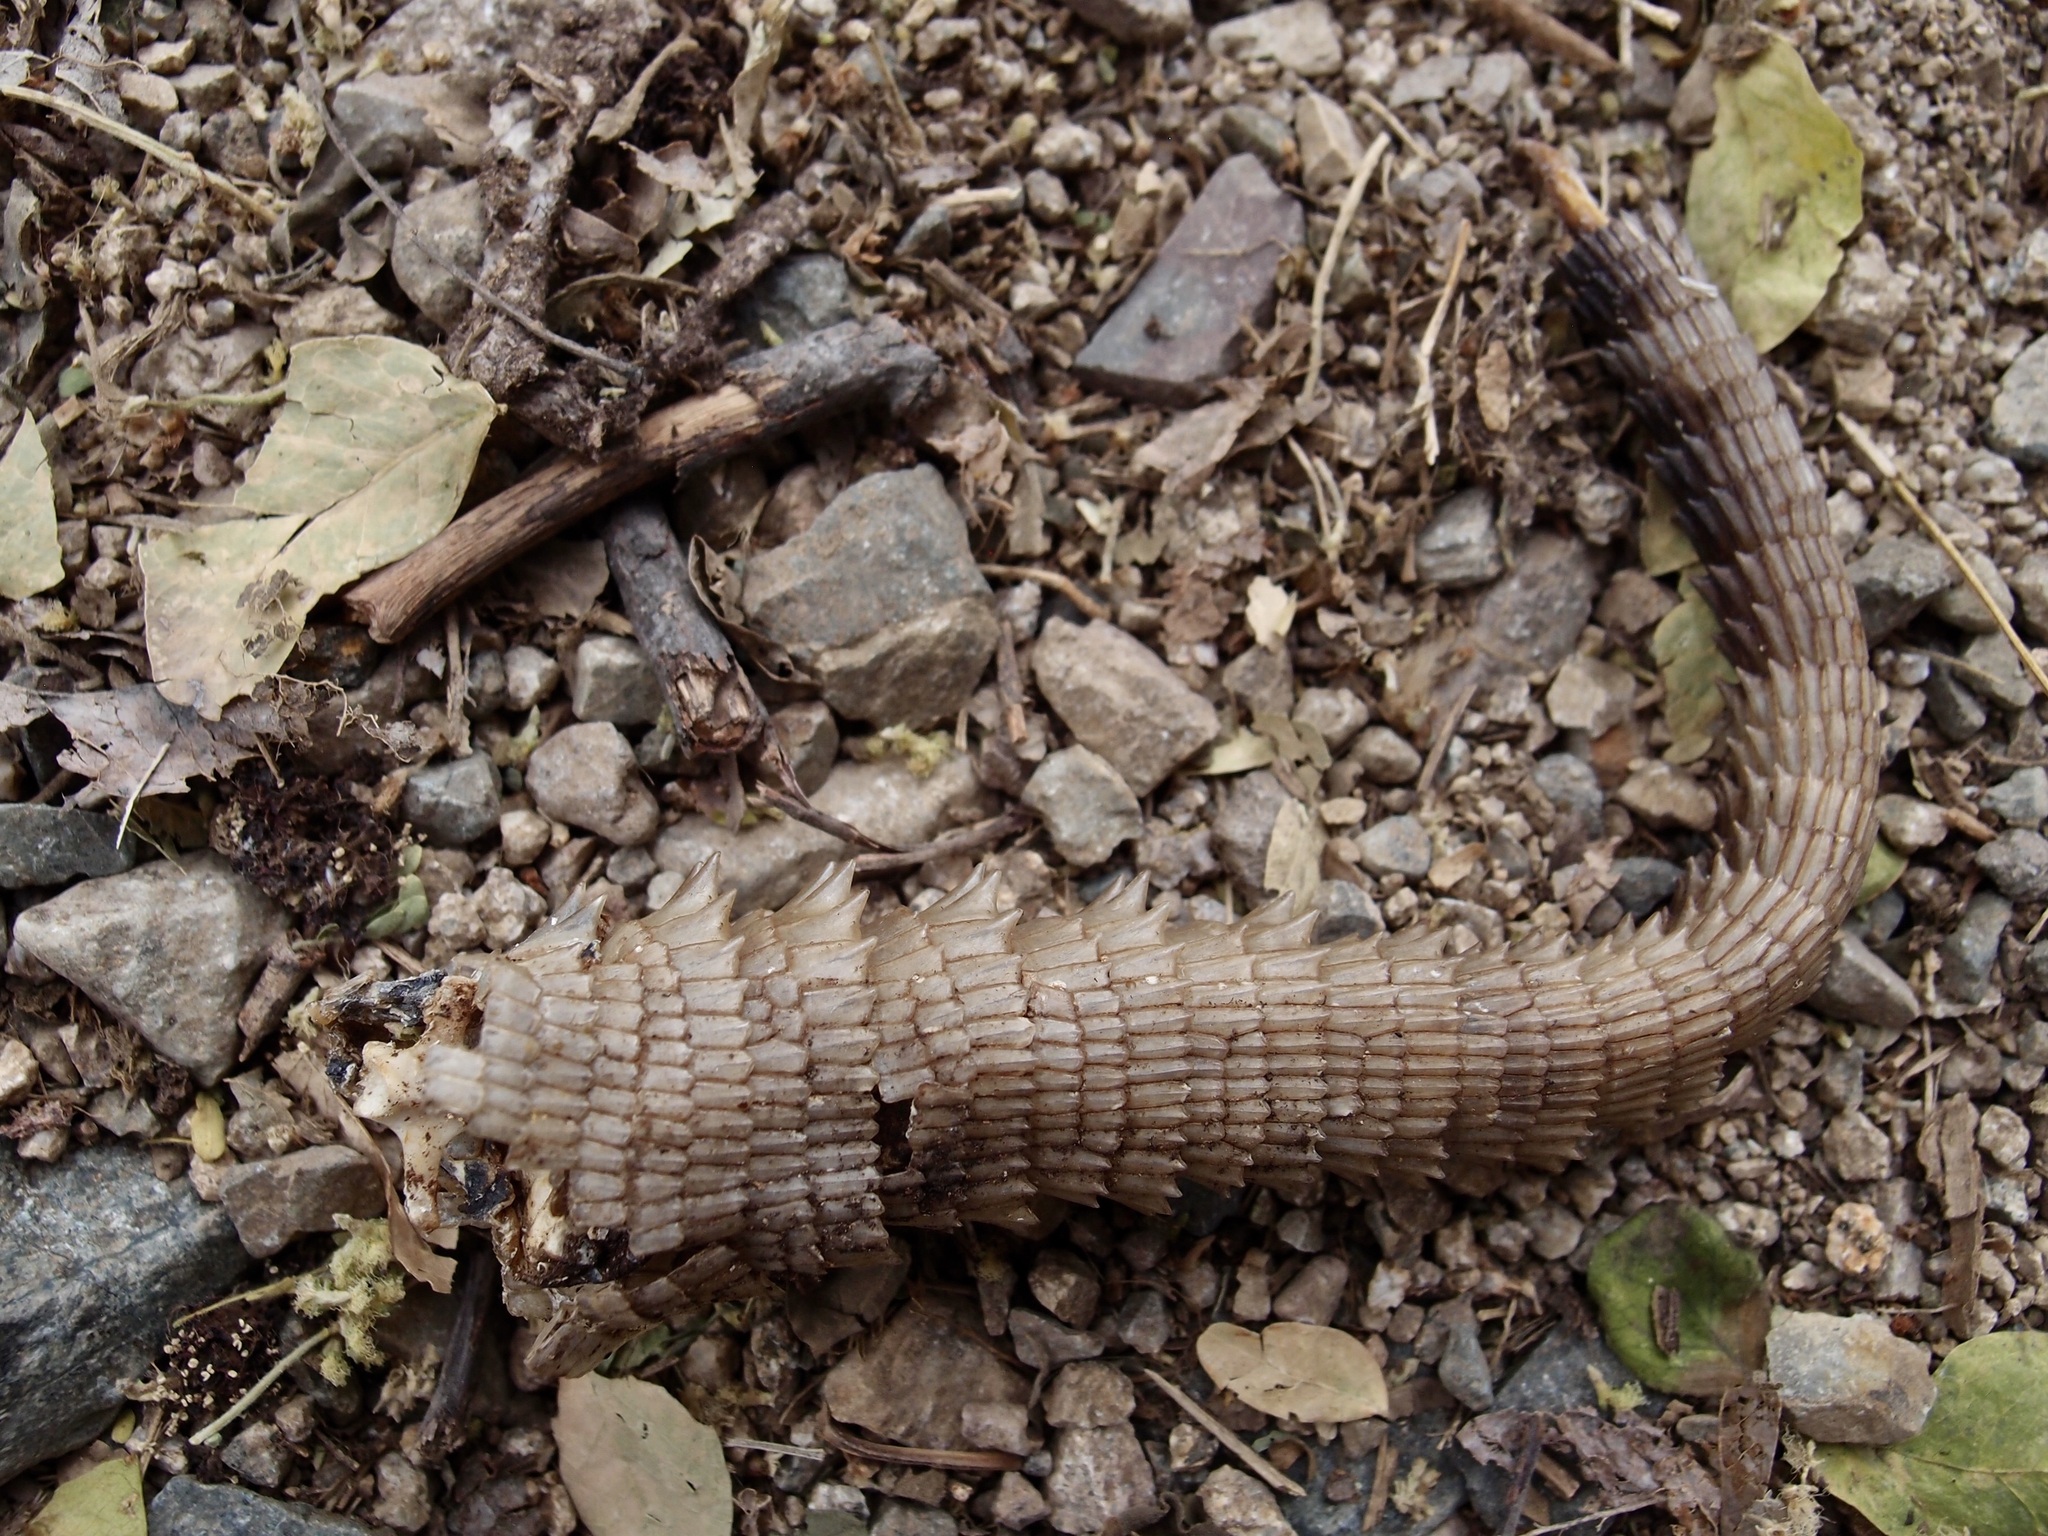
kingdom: Animalia
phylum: Chordata
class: Squamata
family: Iguanidae
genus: Ctenosaura
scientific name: Ctenosaura macrolopha
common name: Cape spinytail iguana
